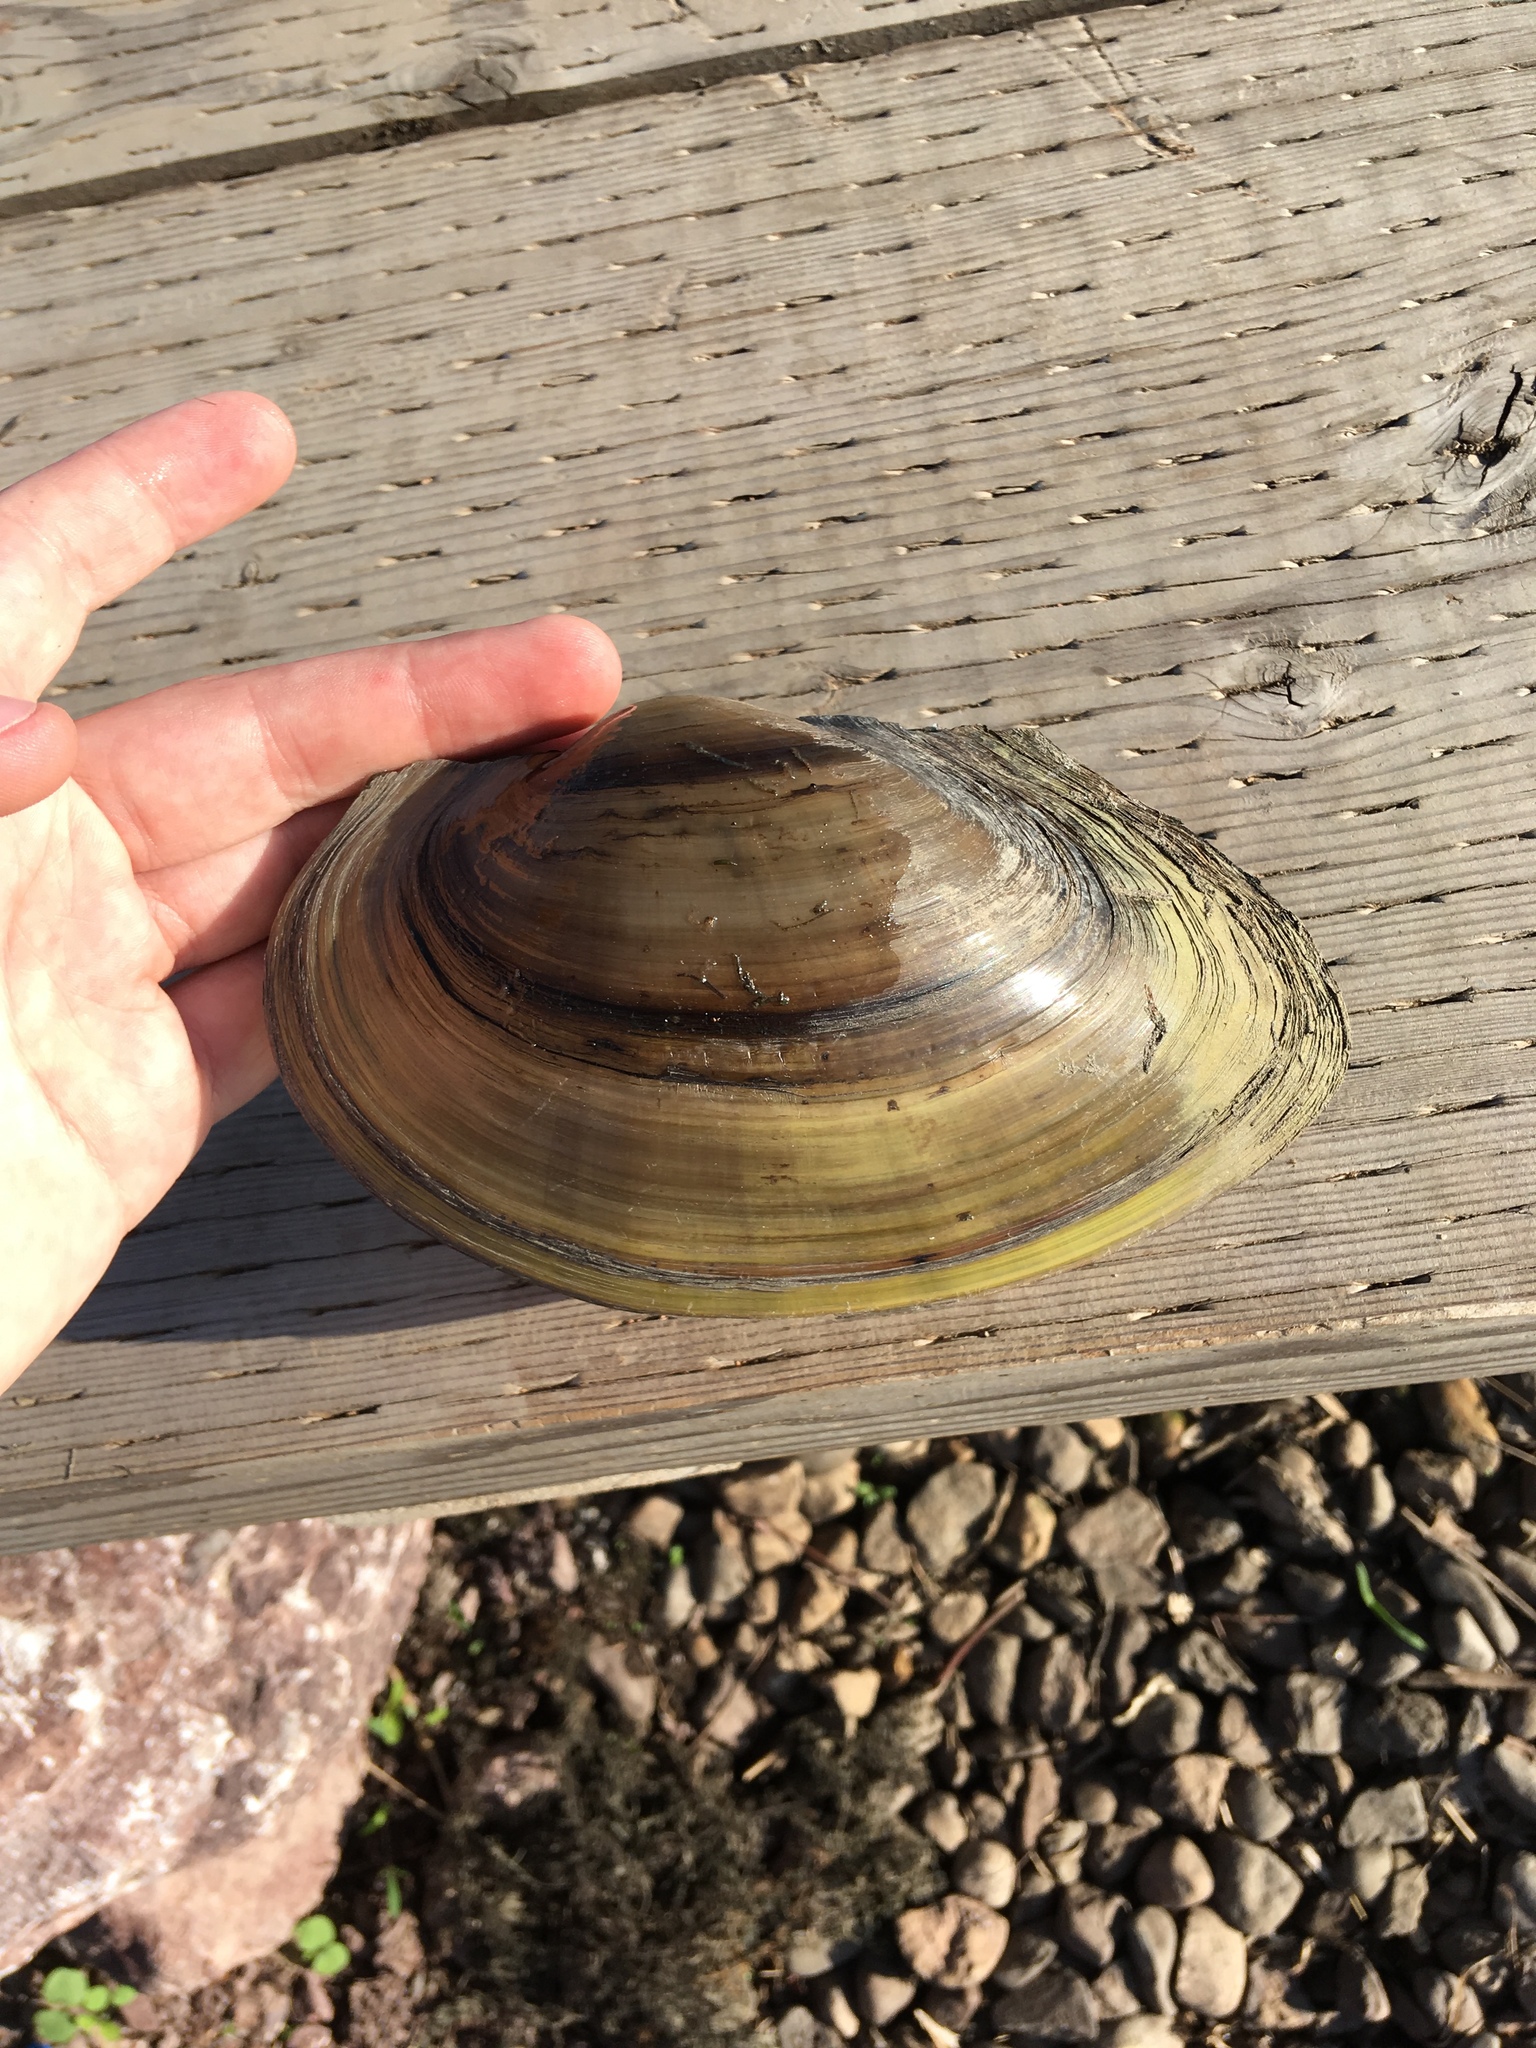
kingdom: Animalia
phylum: Mollusca
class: Bivalvia
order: Unionida
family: Unionidae
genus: Pyganodon
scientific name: Pyganodon grandis
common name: Giant floater
